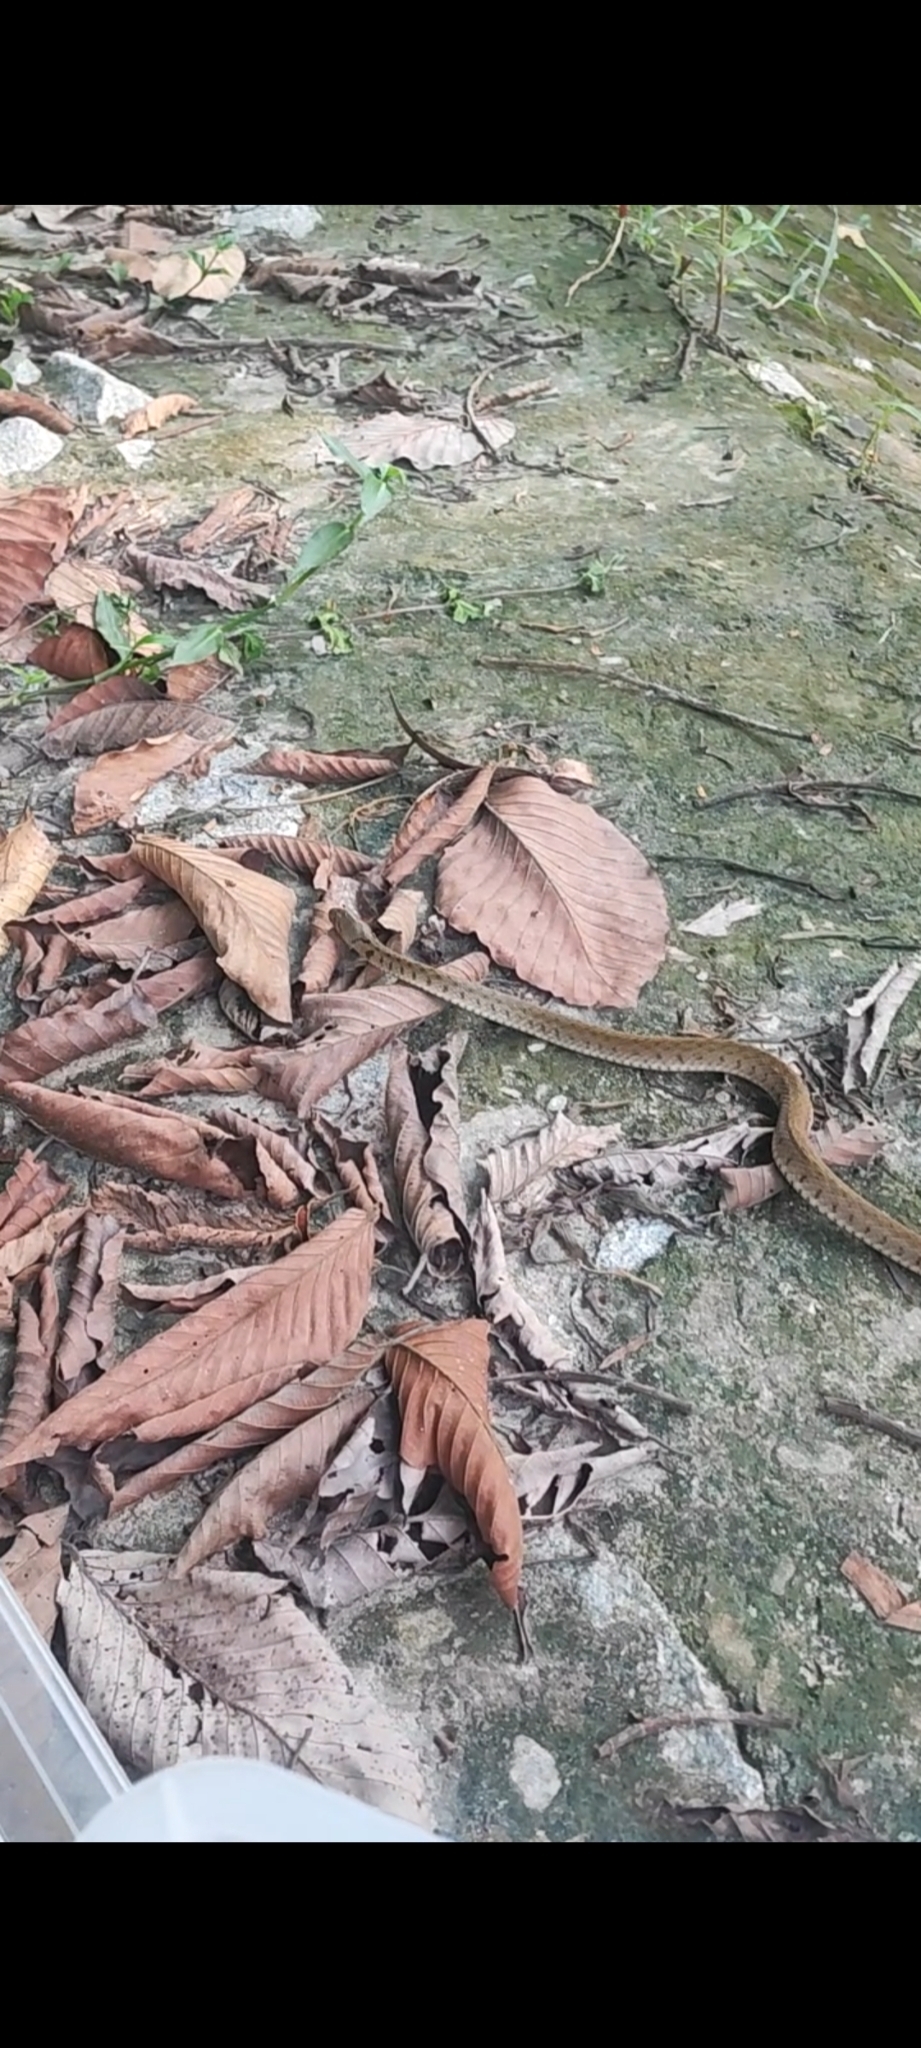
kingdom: Animalia
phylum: Chordata
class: Squamata
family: Colubridae
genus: Fowlea
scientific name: Fowlea flavipunctatus
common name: Yellow-spotted keelback
